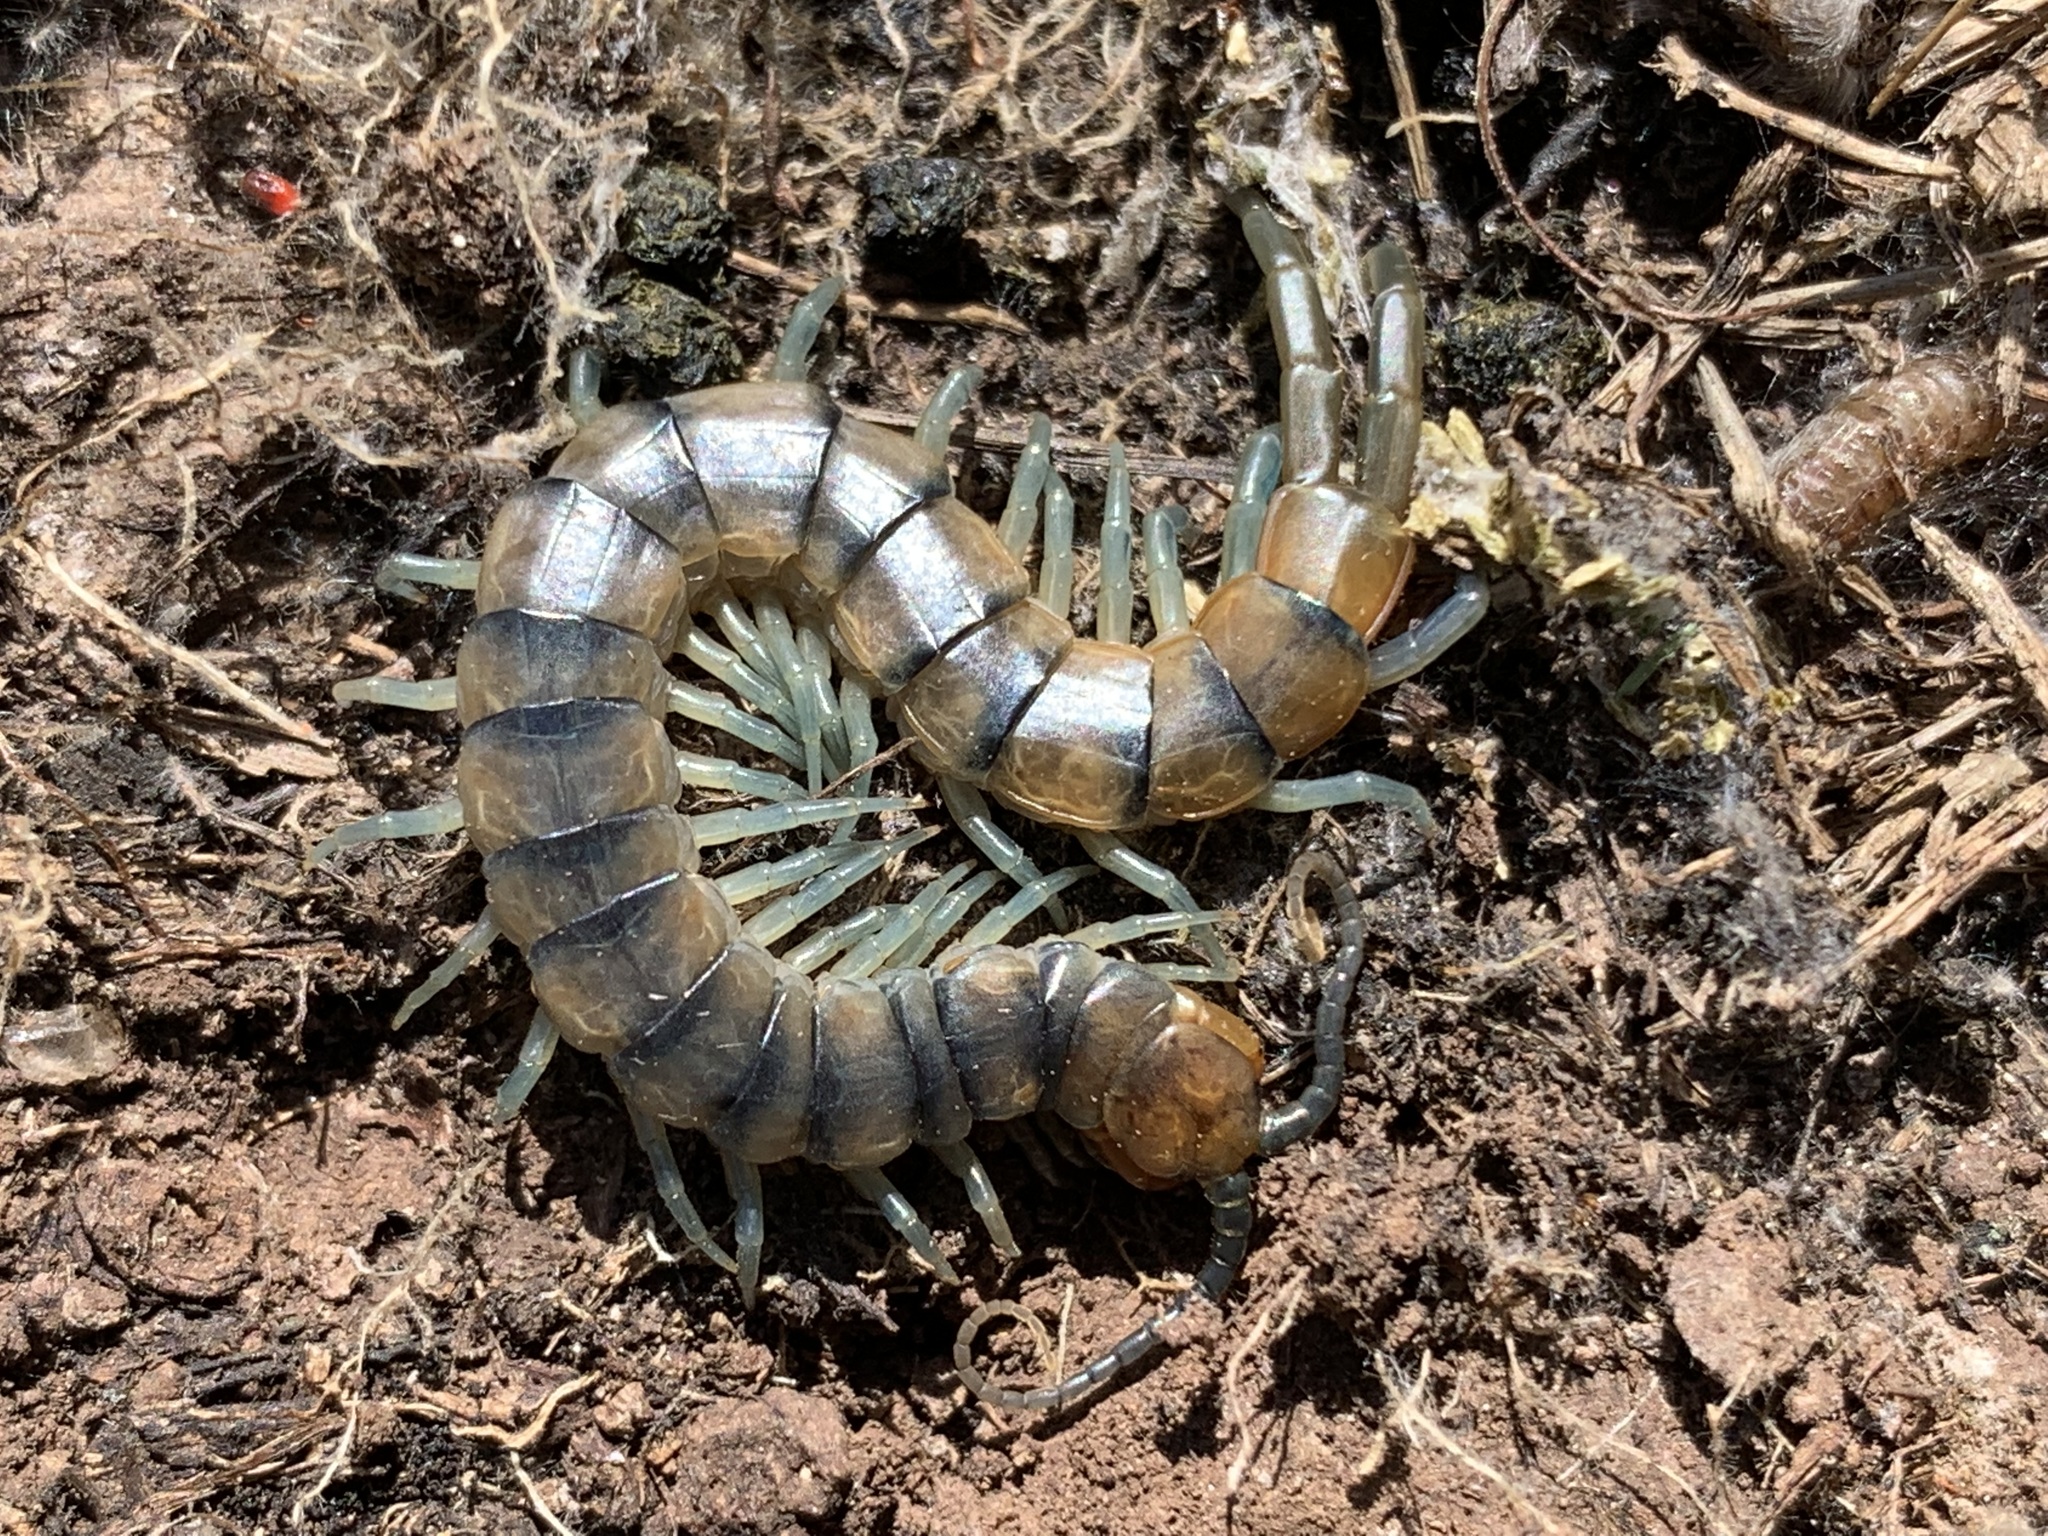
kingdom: Animalia
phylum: Arthropoda
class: Chilopoda
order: Scolopendromorpha
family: Scolopendridae
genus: Scolopendra
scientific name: Scolopendra polymorpha
